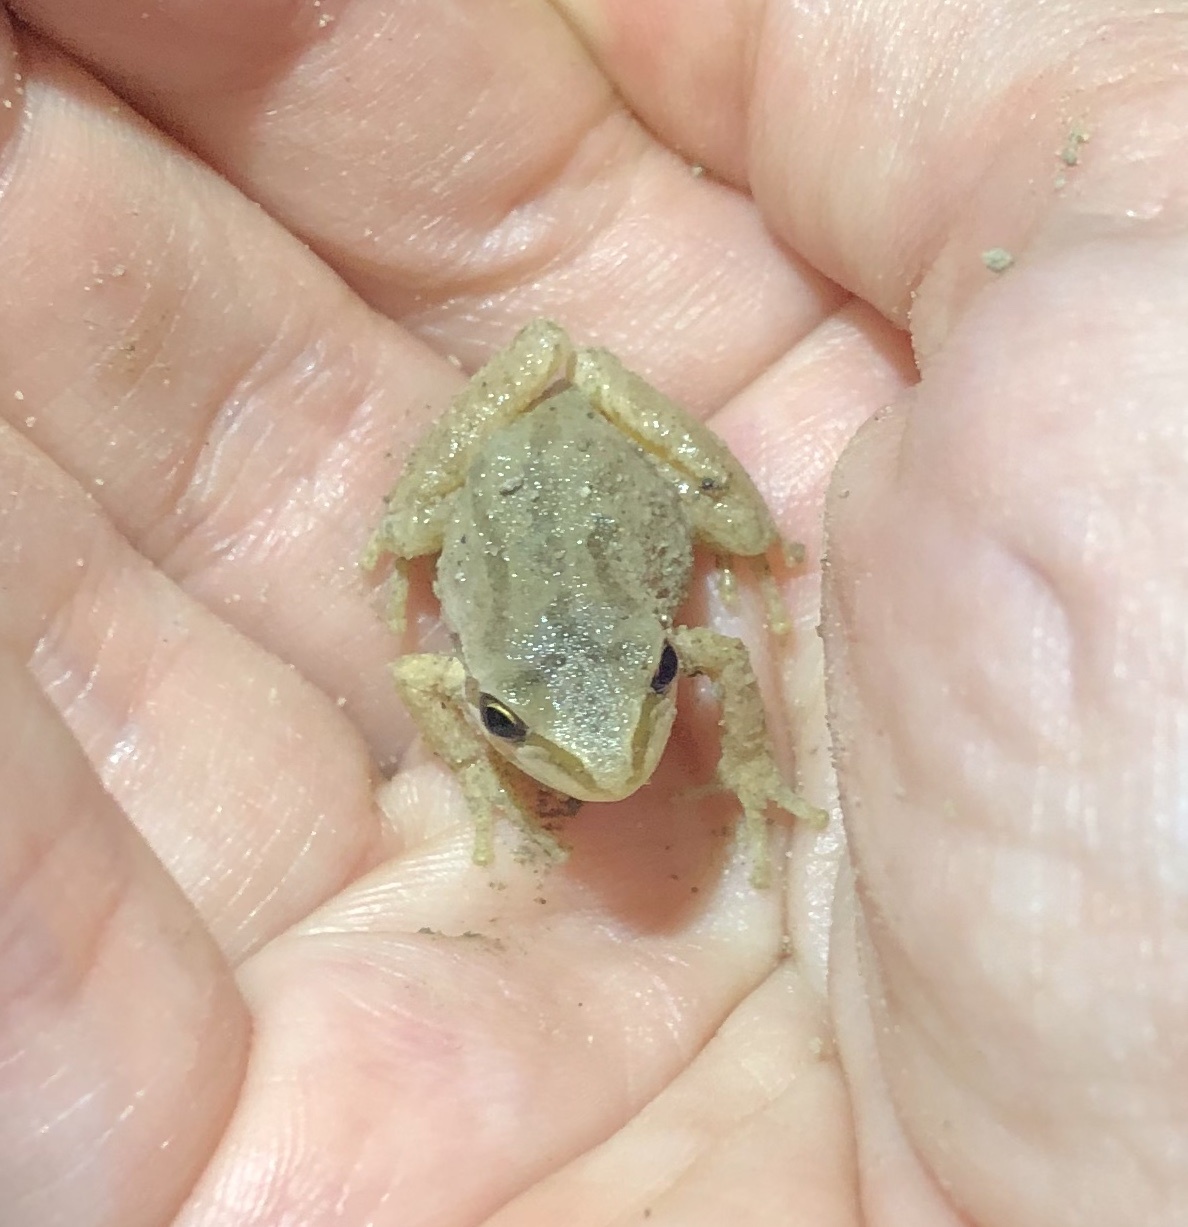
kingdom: Animalia
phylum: Chordata
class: Amphibia
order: Anura
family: Hylidae
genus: Pseudacris
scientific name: Pseudacris regilla
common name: Pacific chorus frog
